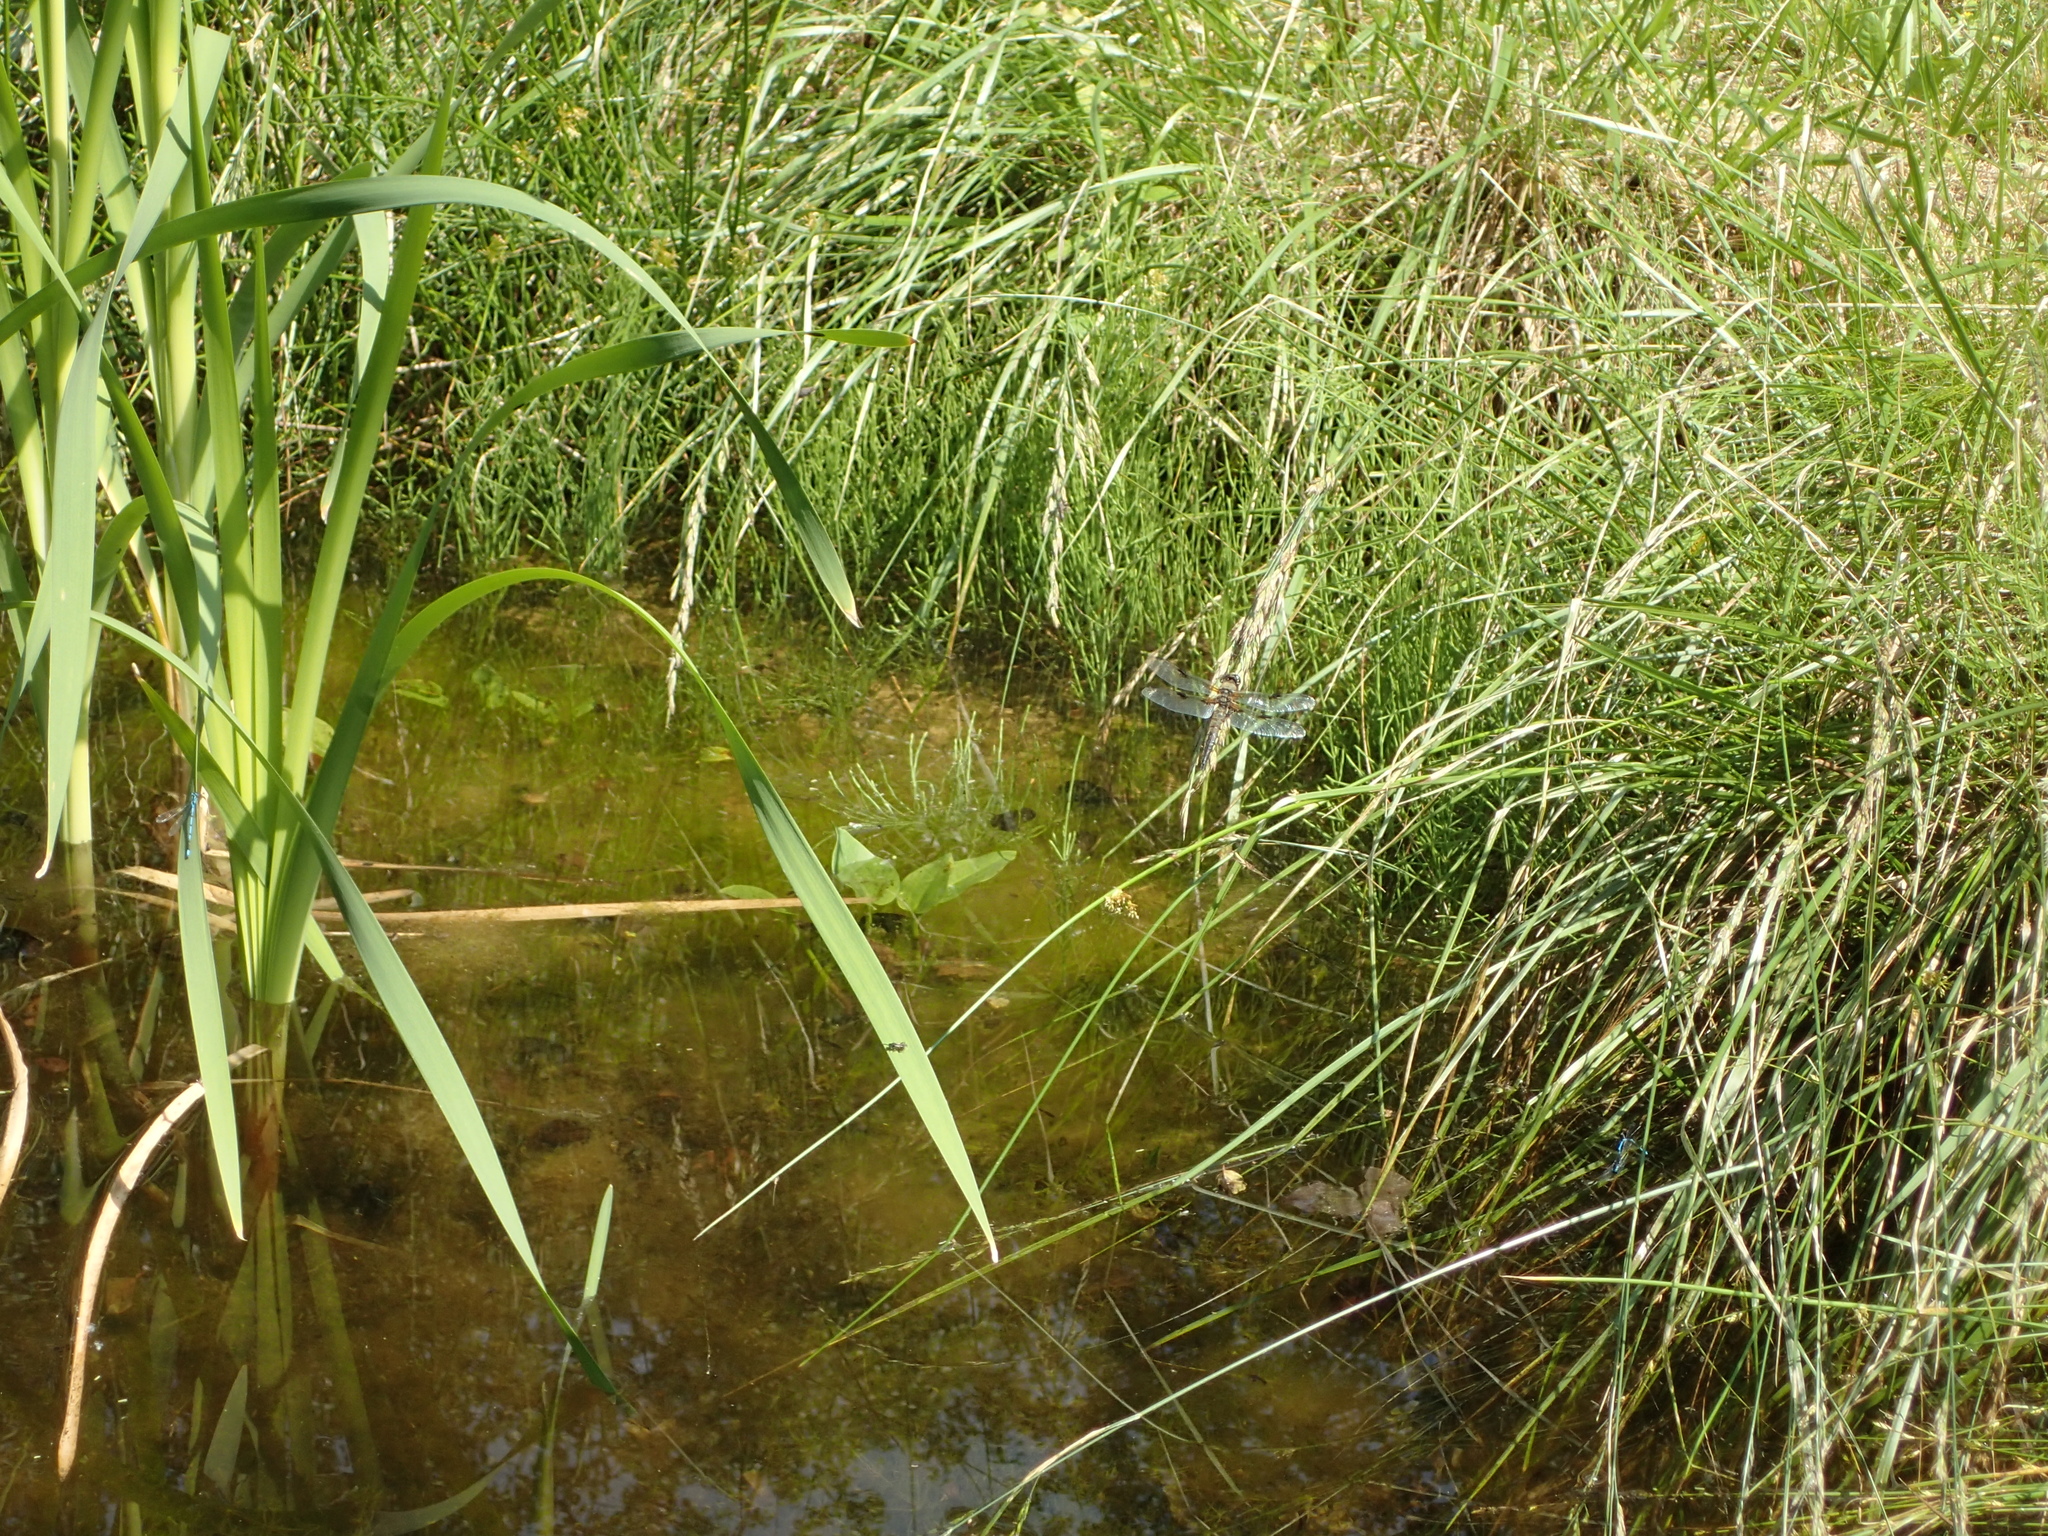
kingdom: Animalia
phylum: Arthropoda
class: Insecta
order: Odonata
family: Libellulidae
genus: Libellula
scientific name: Libellula quadrimaculata
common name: Four-spotted chaser
